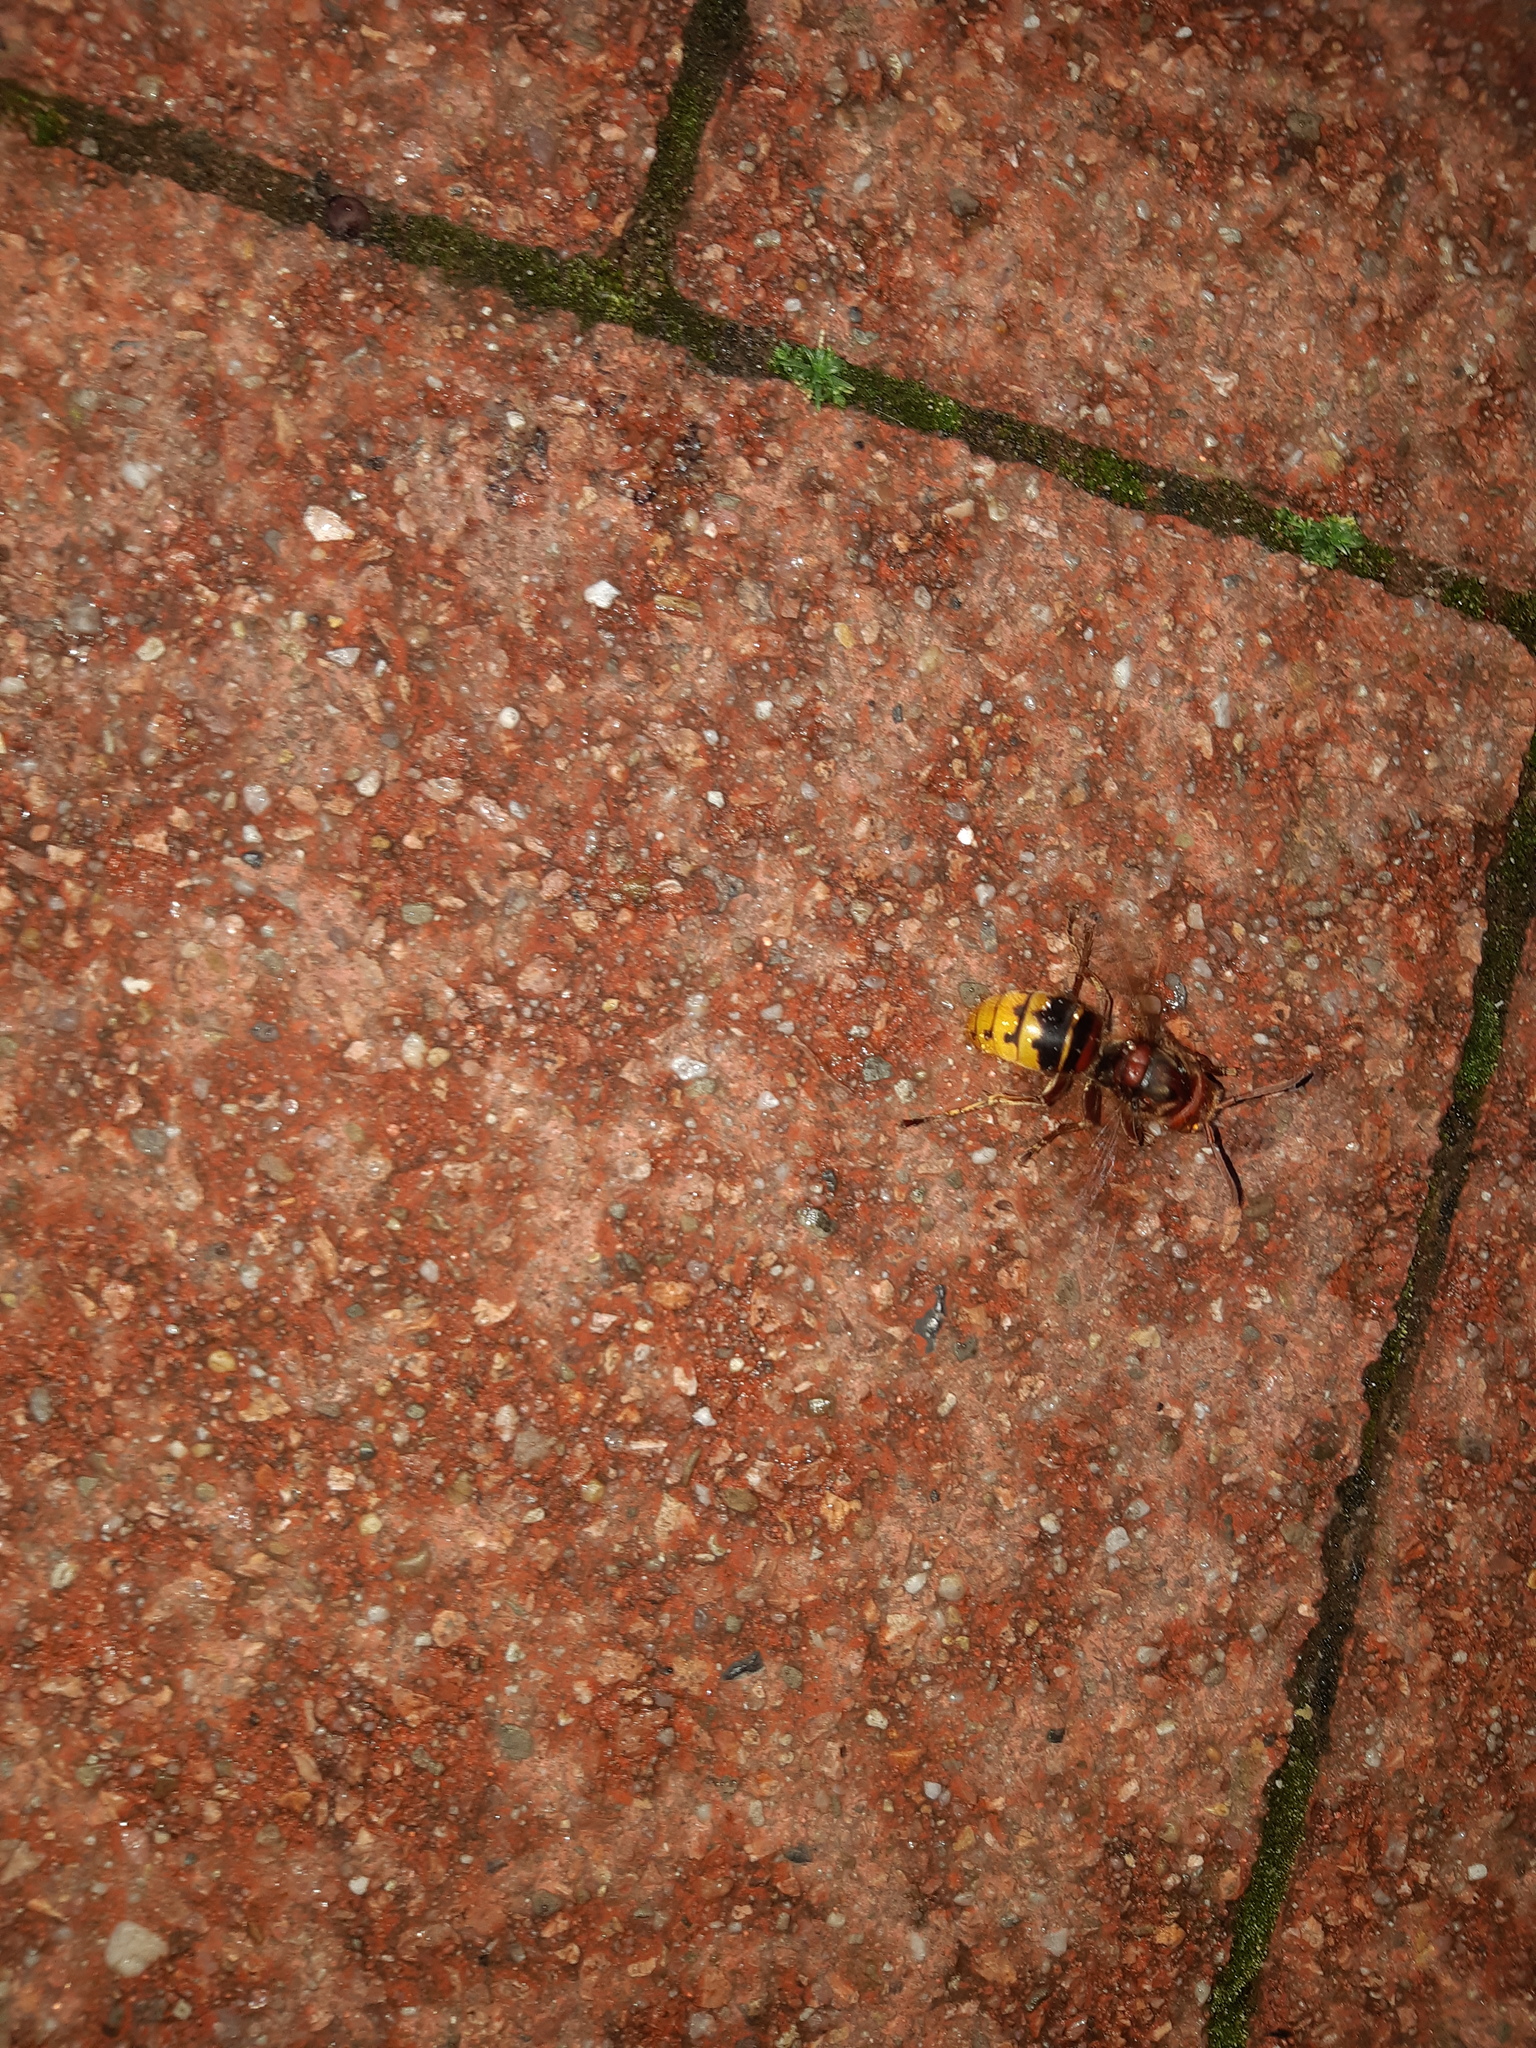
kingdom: Animalia
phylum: Arthropoda
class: Insecta
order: Hymenoptera
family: Vespidae
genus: Vespa
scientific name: Vespa crabro
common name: Hornet
